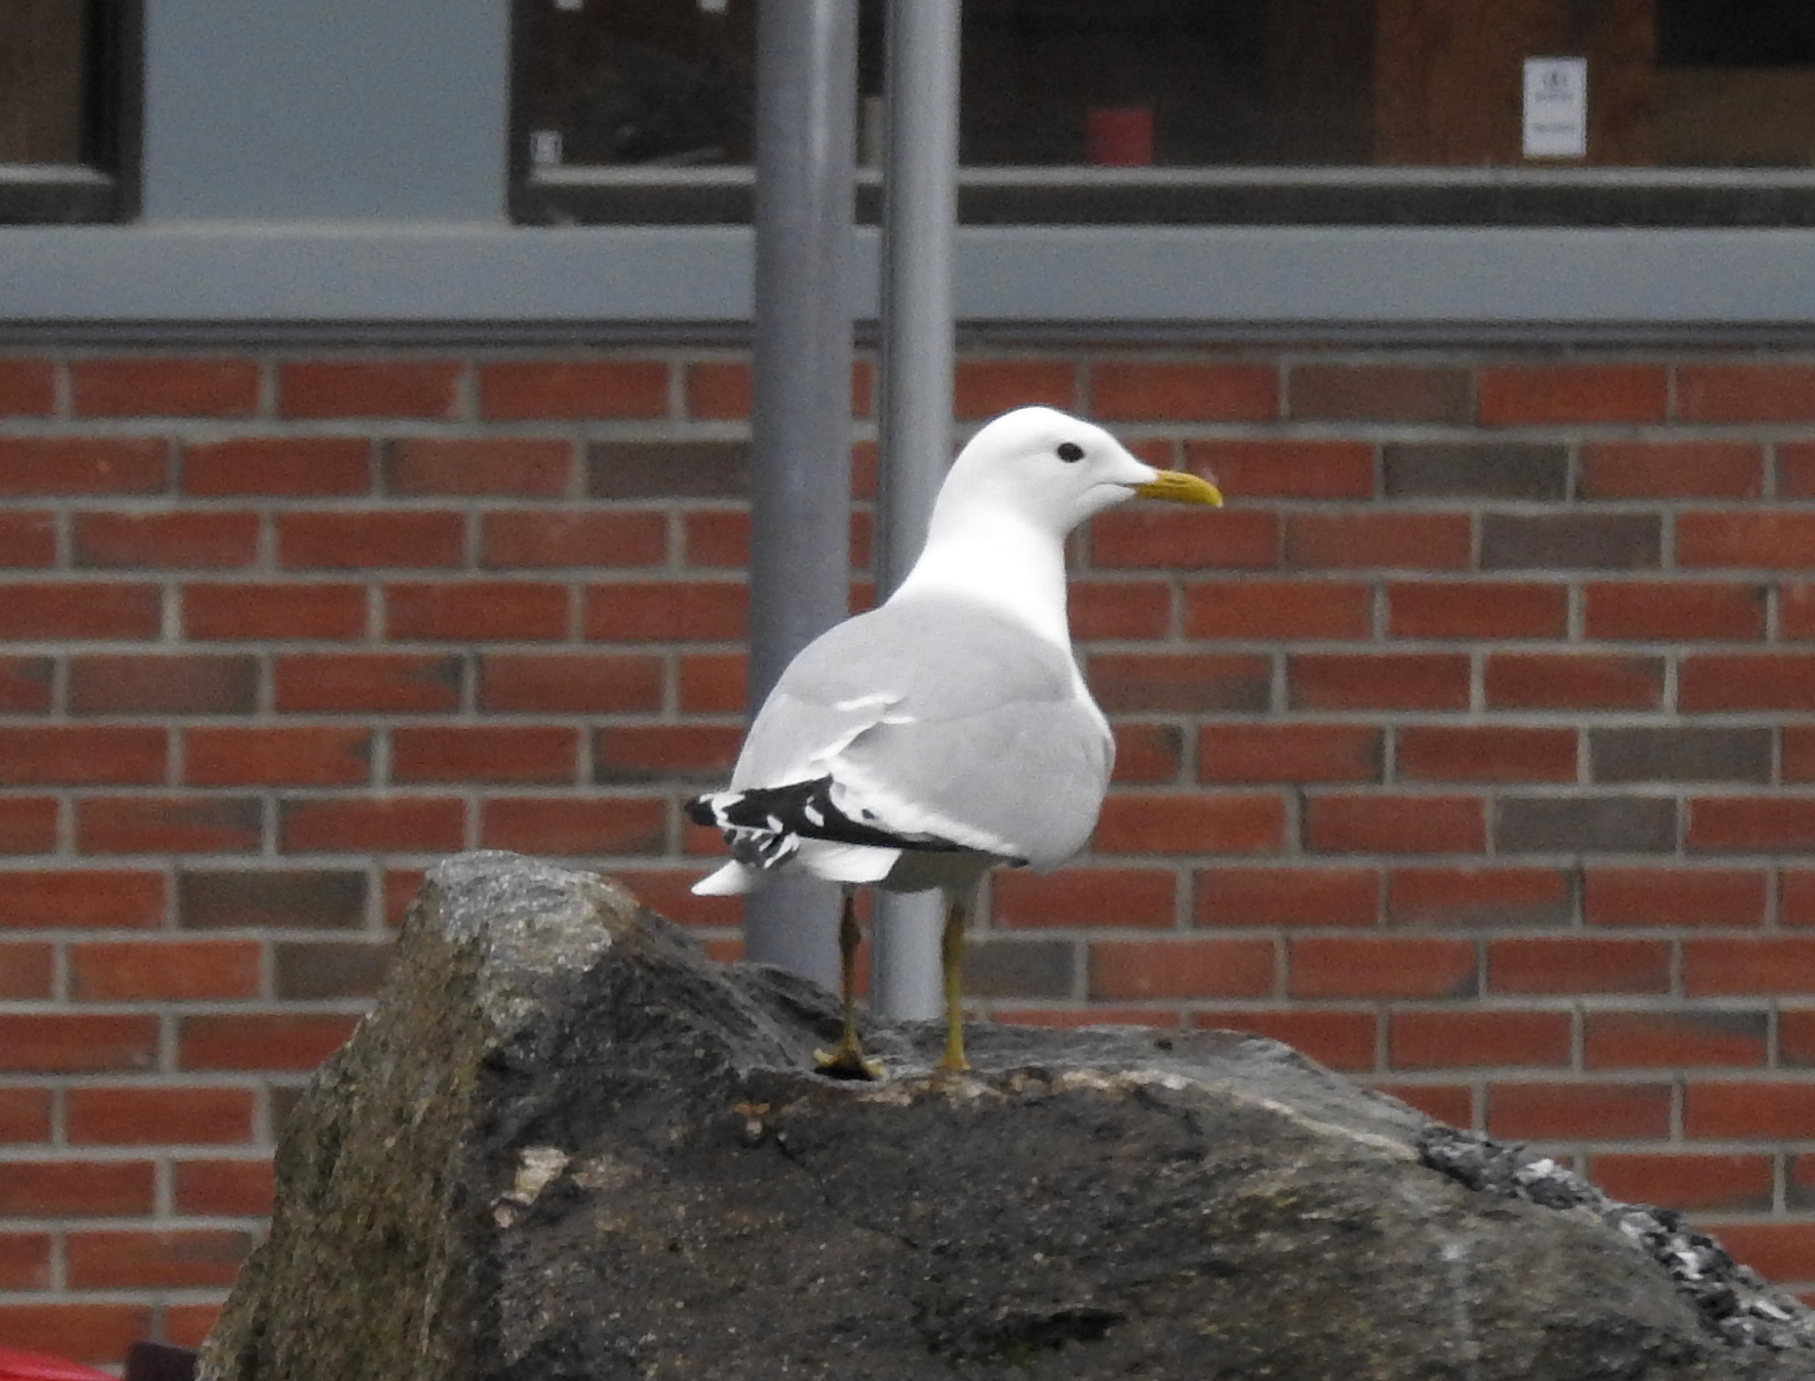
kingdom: Animalia
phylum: Chordata
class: Aves
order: Charadriiformes
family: Laridae
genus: Larus
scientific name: Larus canus
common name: Mew gull
